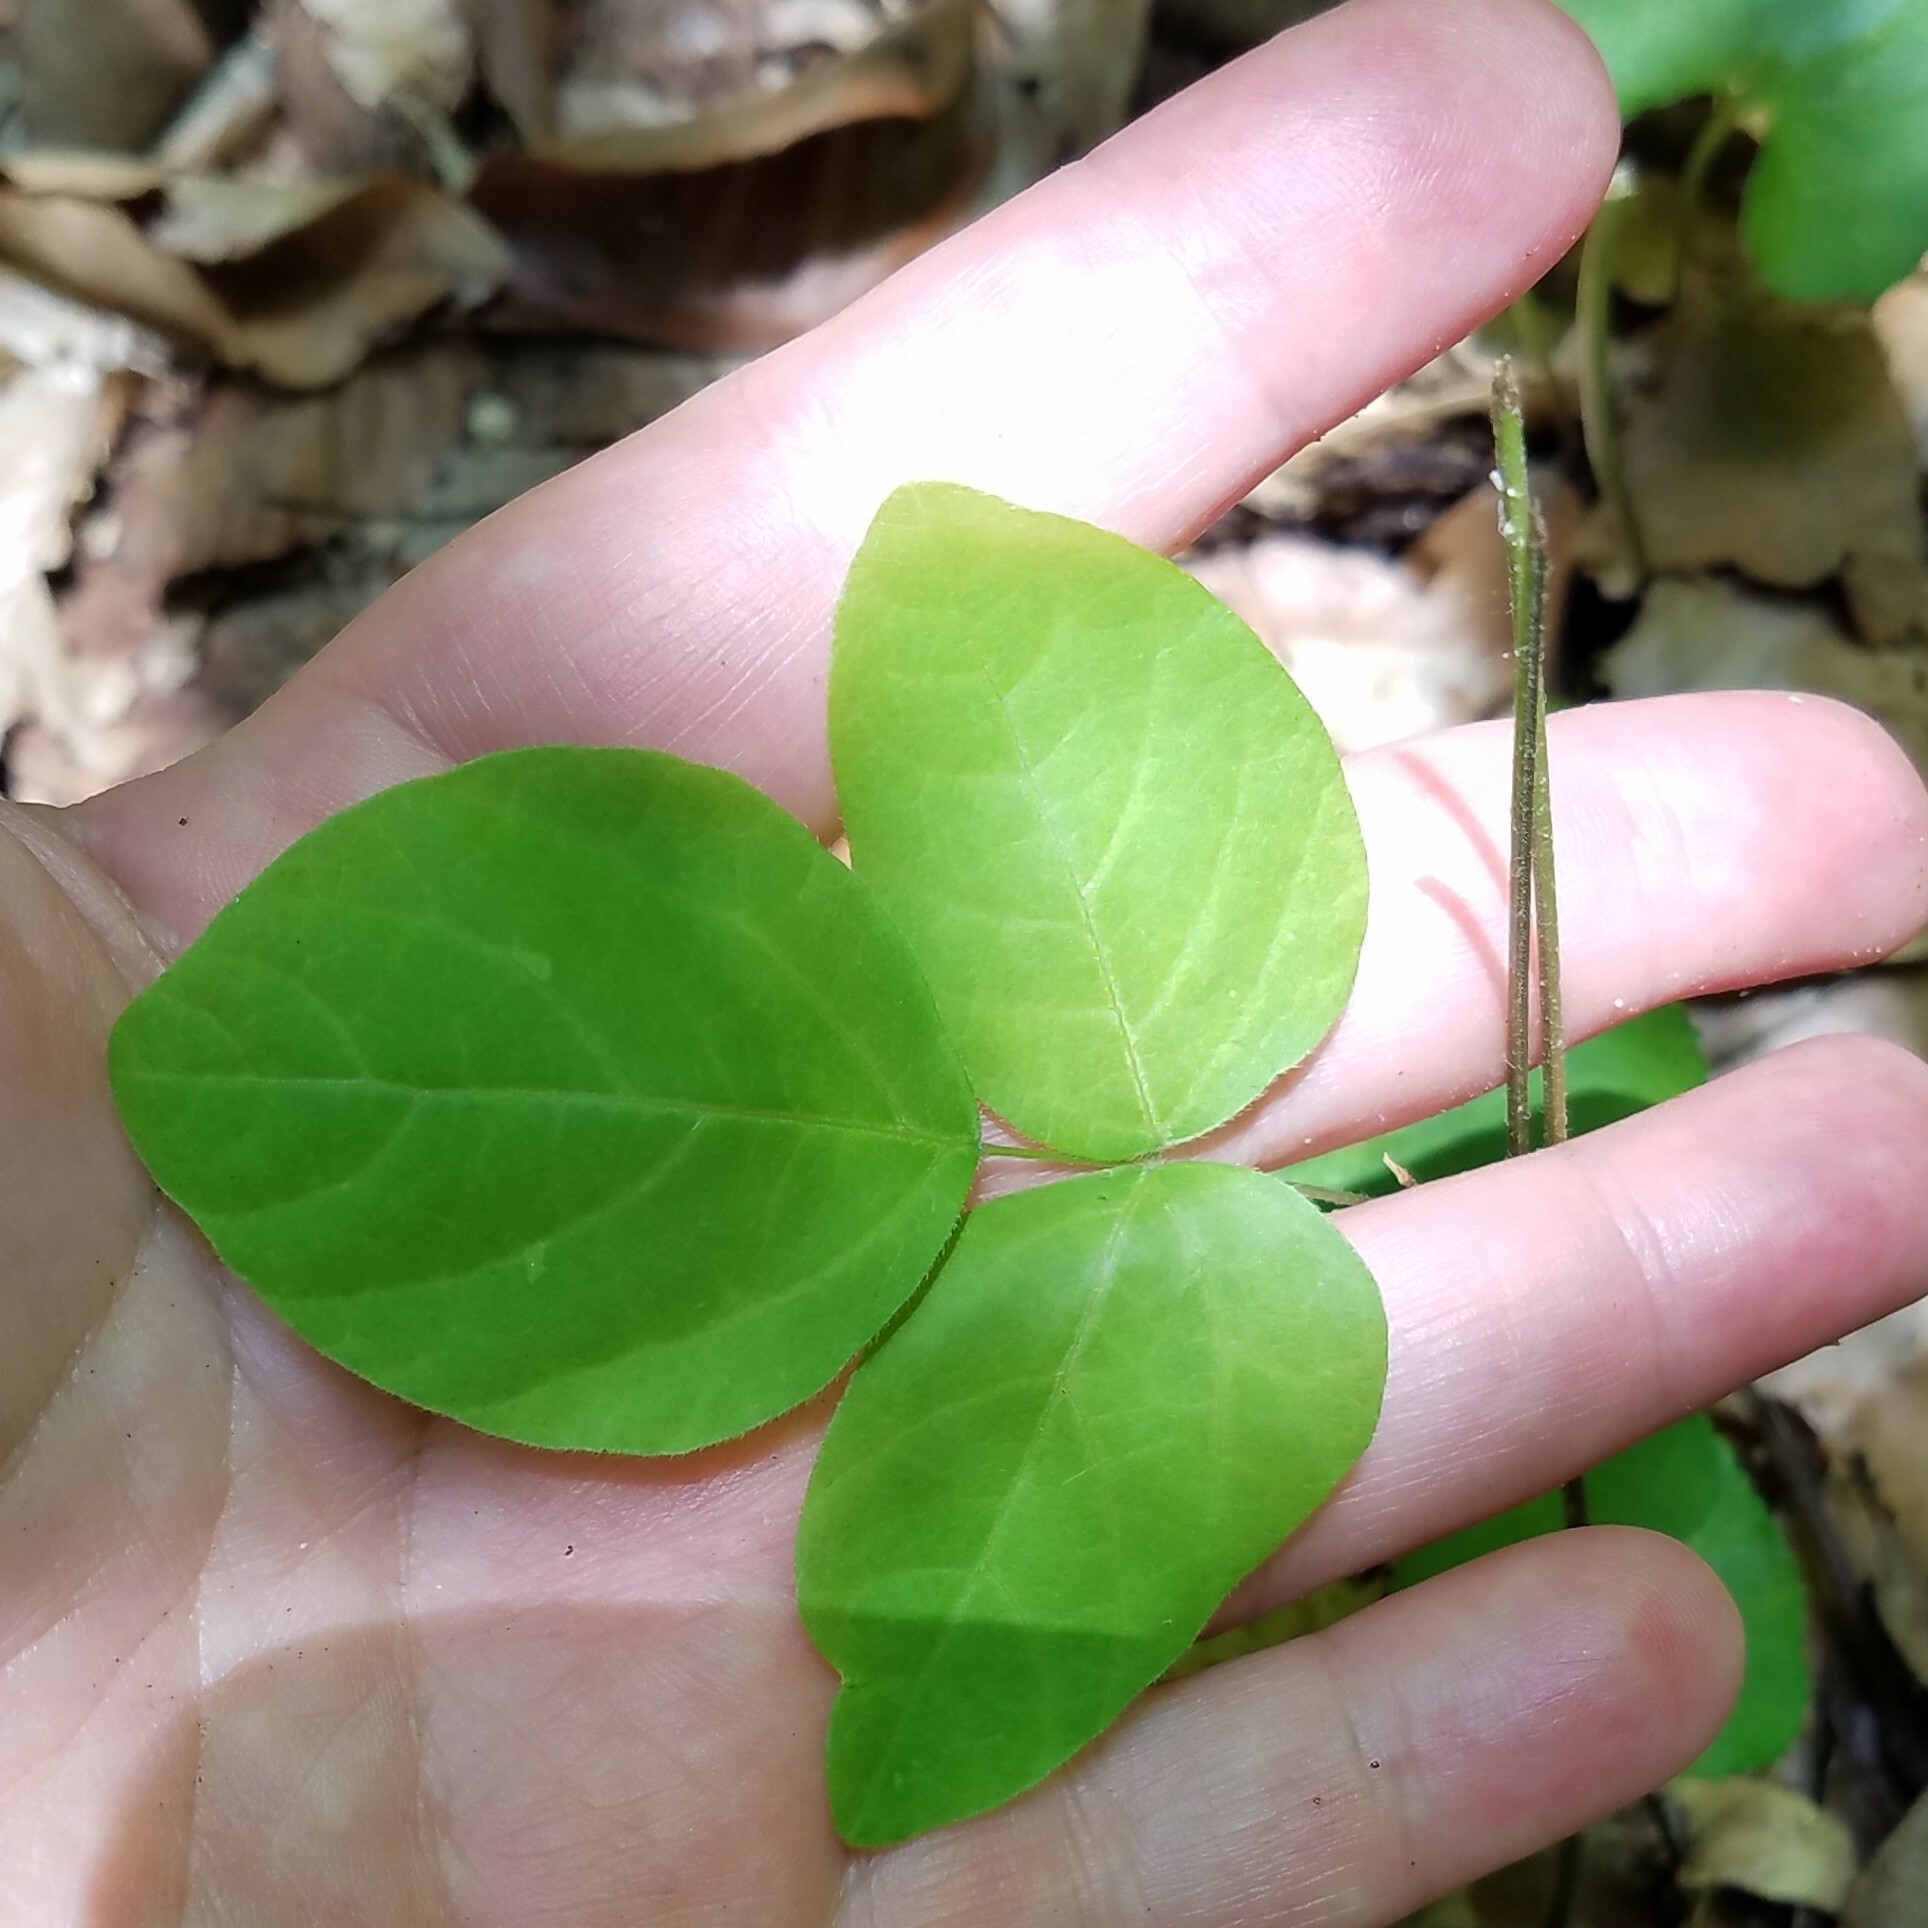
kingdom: Plantae
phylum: Tracheophyta
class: Magnoliopsida
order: Fabales
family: Fabaceae
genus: Hylodesmum
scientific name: Hylodesmum nudiflorum
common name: Bare-stemmed tick-trefoil
